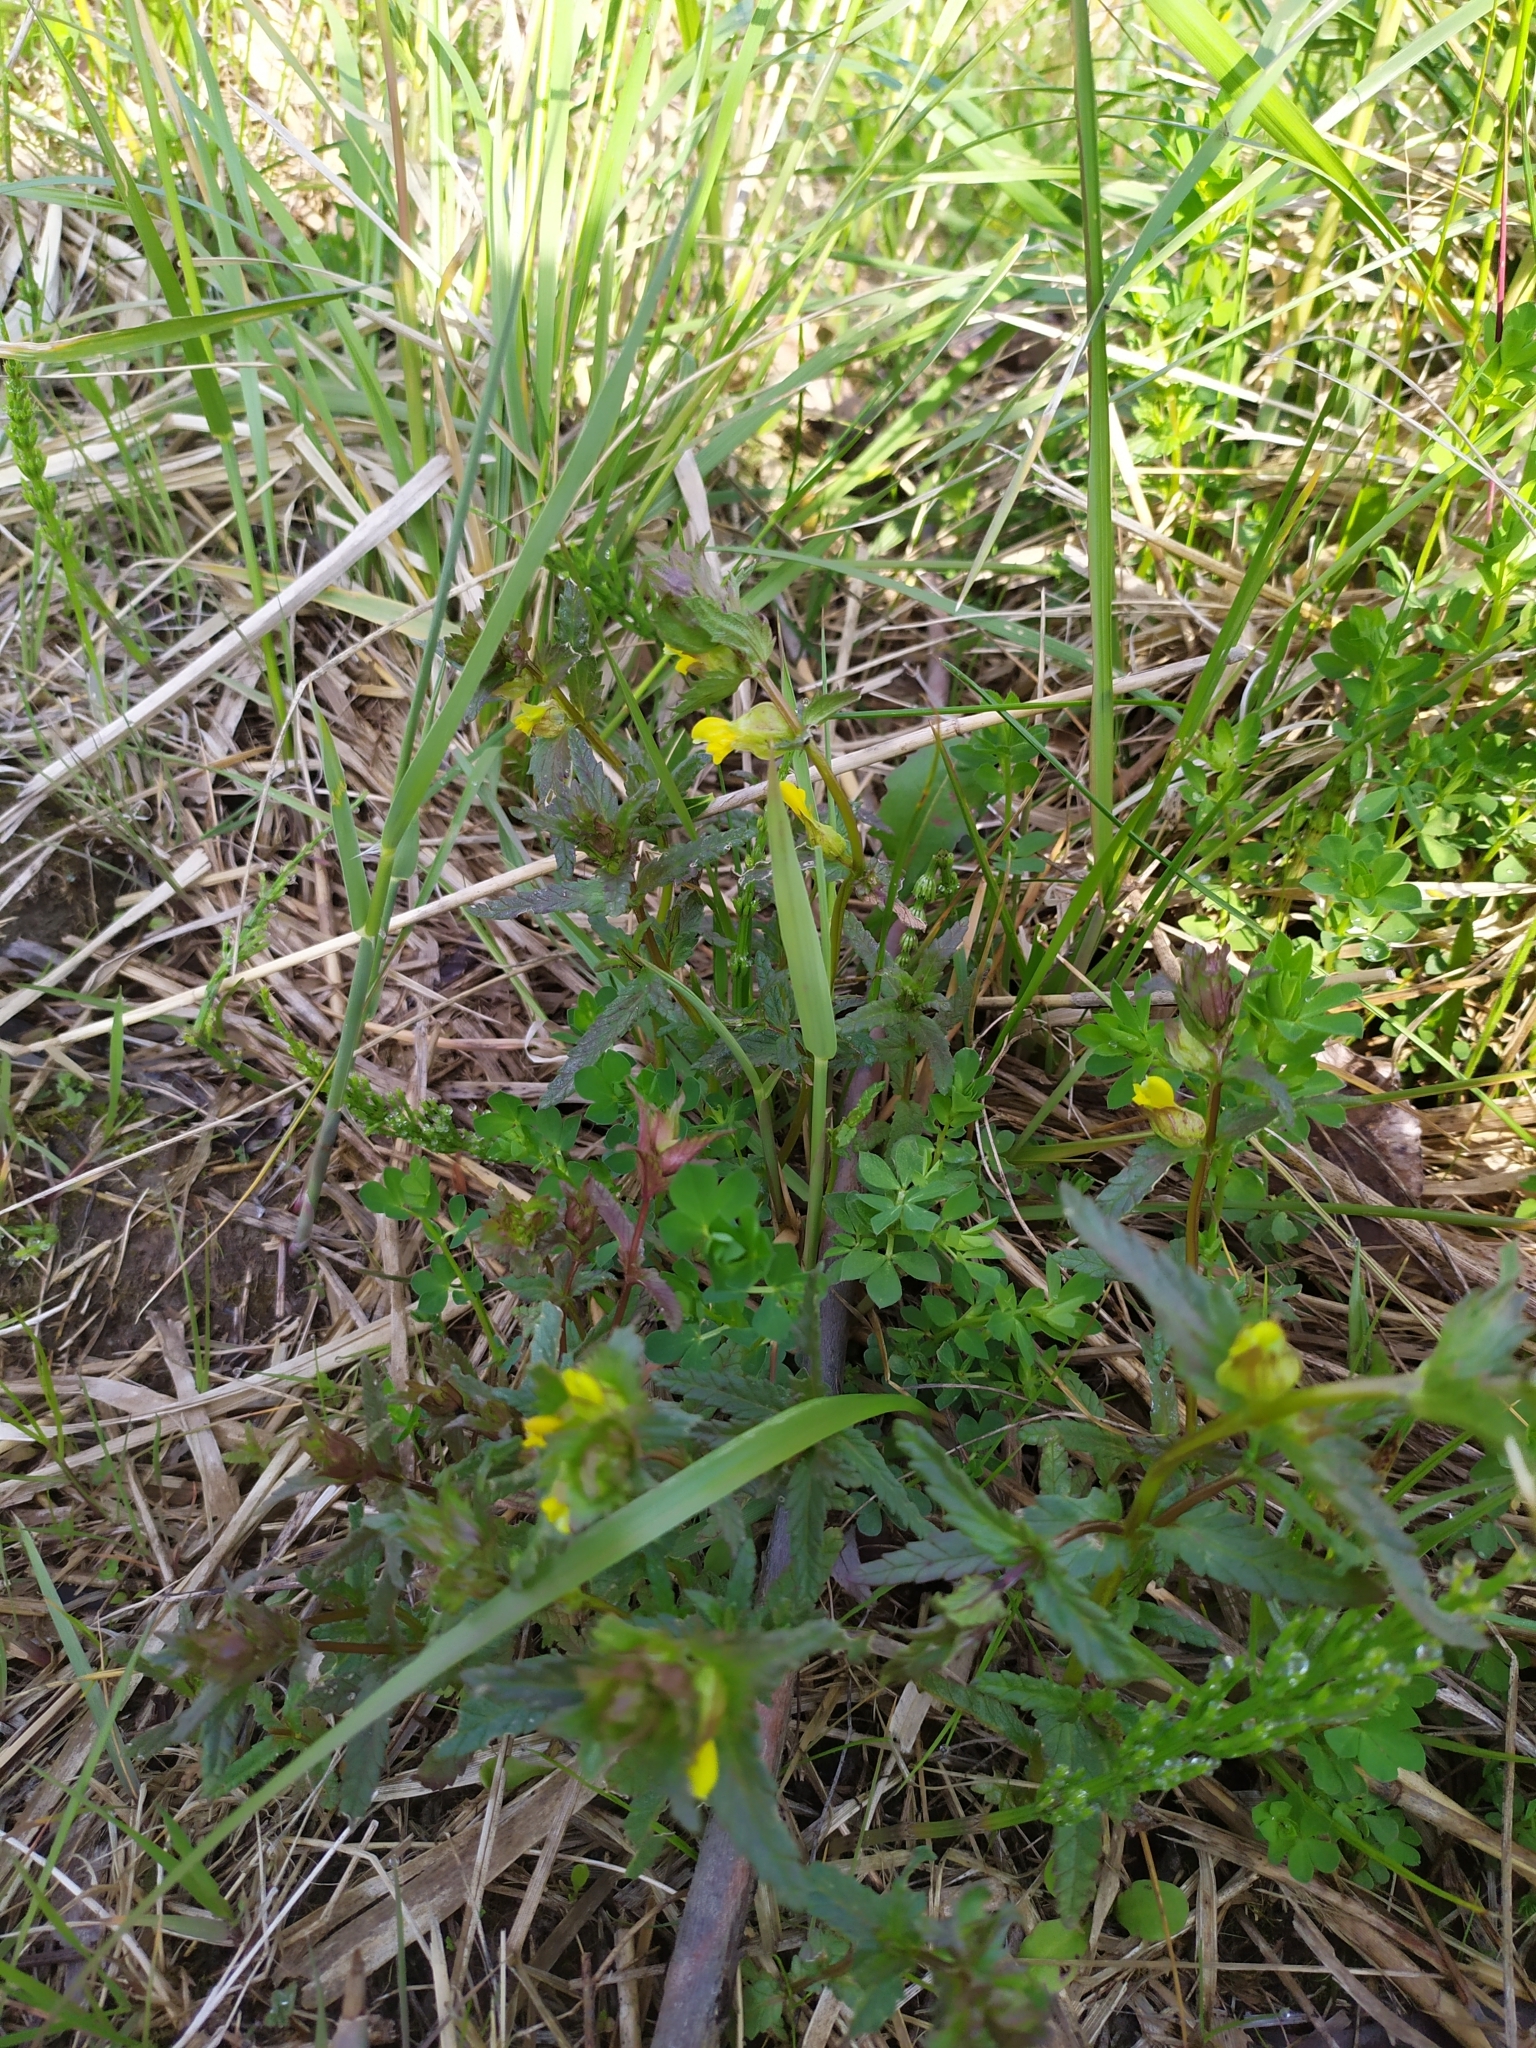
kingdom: Plantae
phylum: Tracheophyta
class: Magnoliopsida
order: Lamiales
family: Orobanchaceae
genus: Rhinanthus
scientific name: Rhinanthus minor
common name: Yellow-rattle
